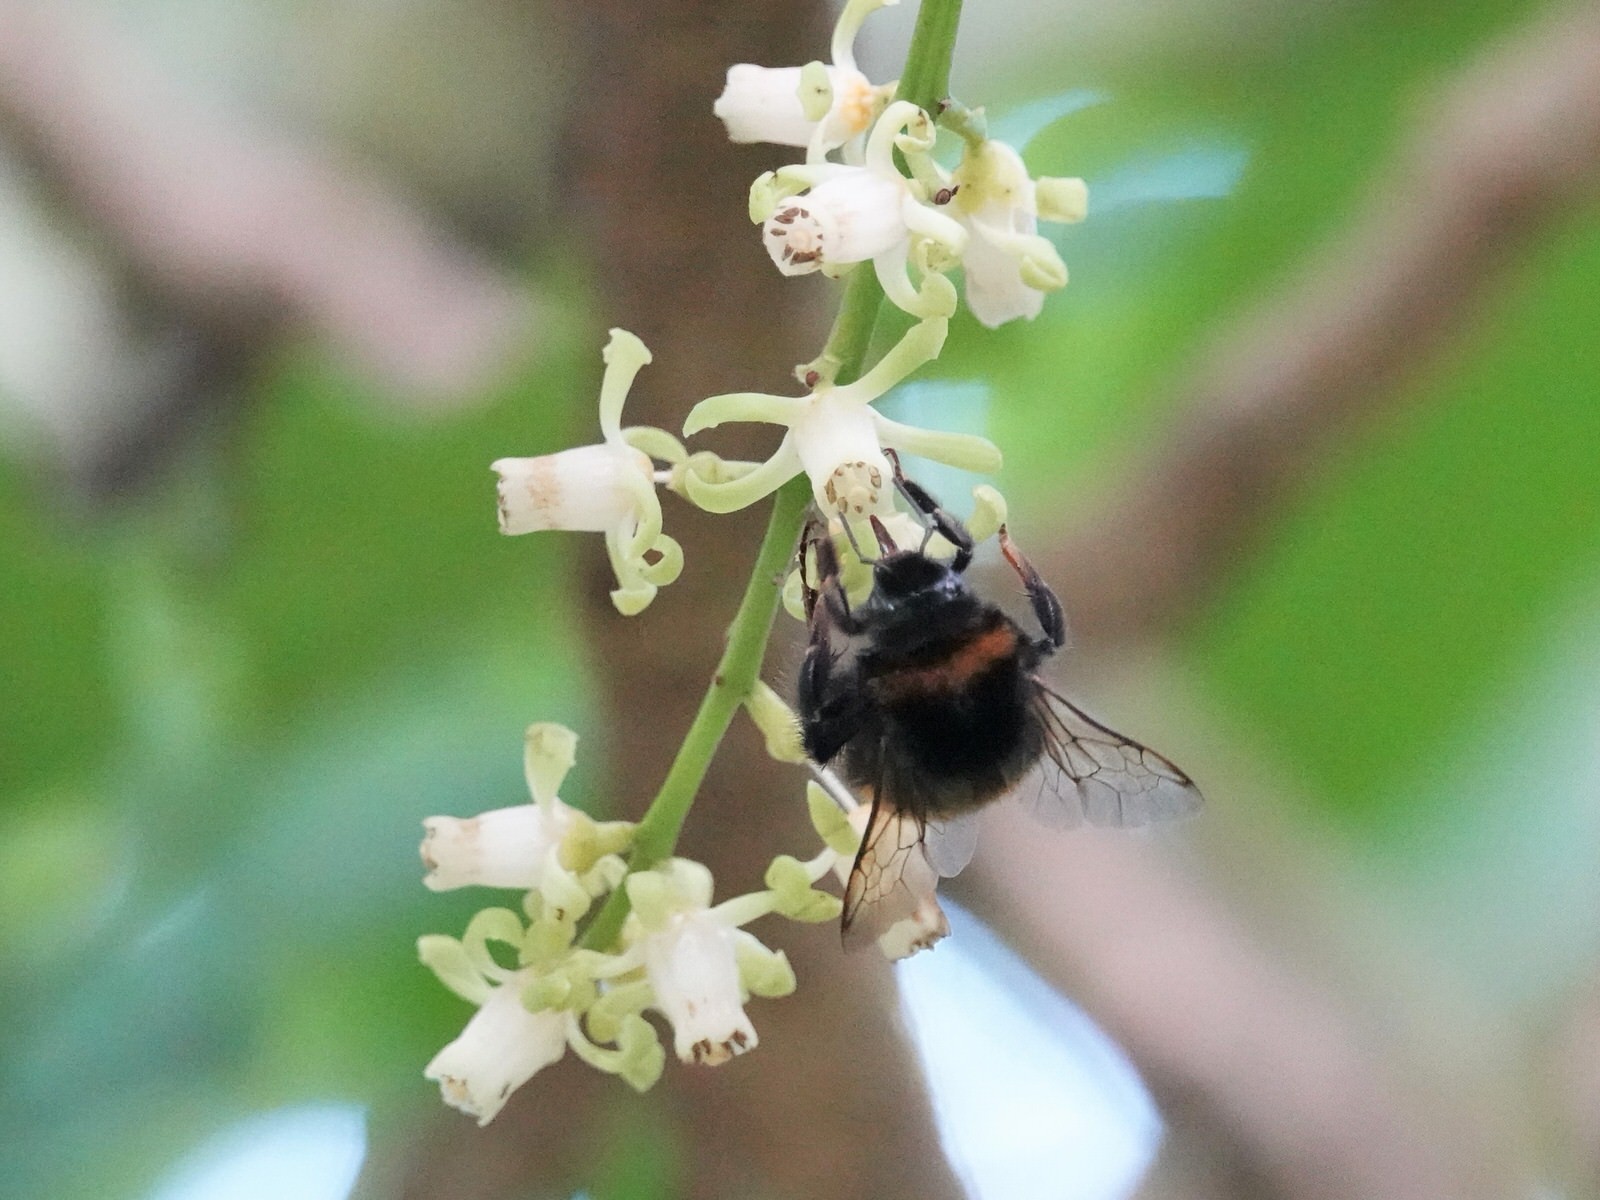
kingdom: Animalia
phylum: Arthropoda
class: Insecta
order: Hymenoptera
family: Apidae
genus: Bombus
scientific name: Bombus terrestris
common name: Buff-tailed bumblebee
